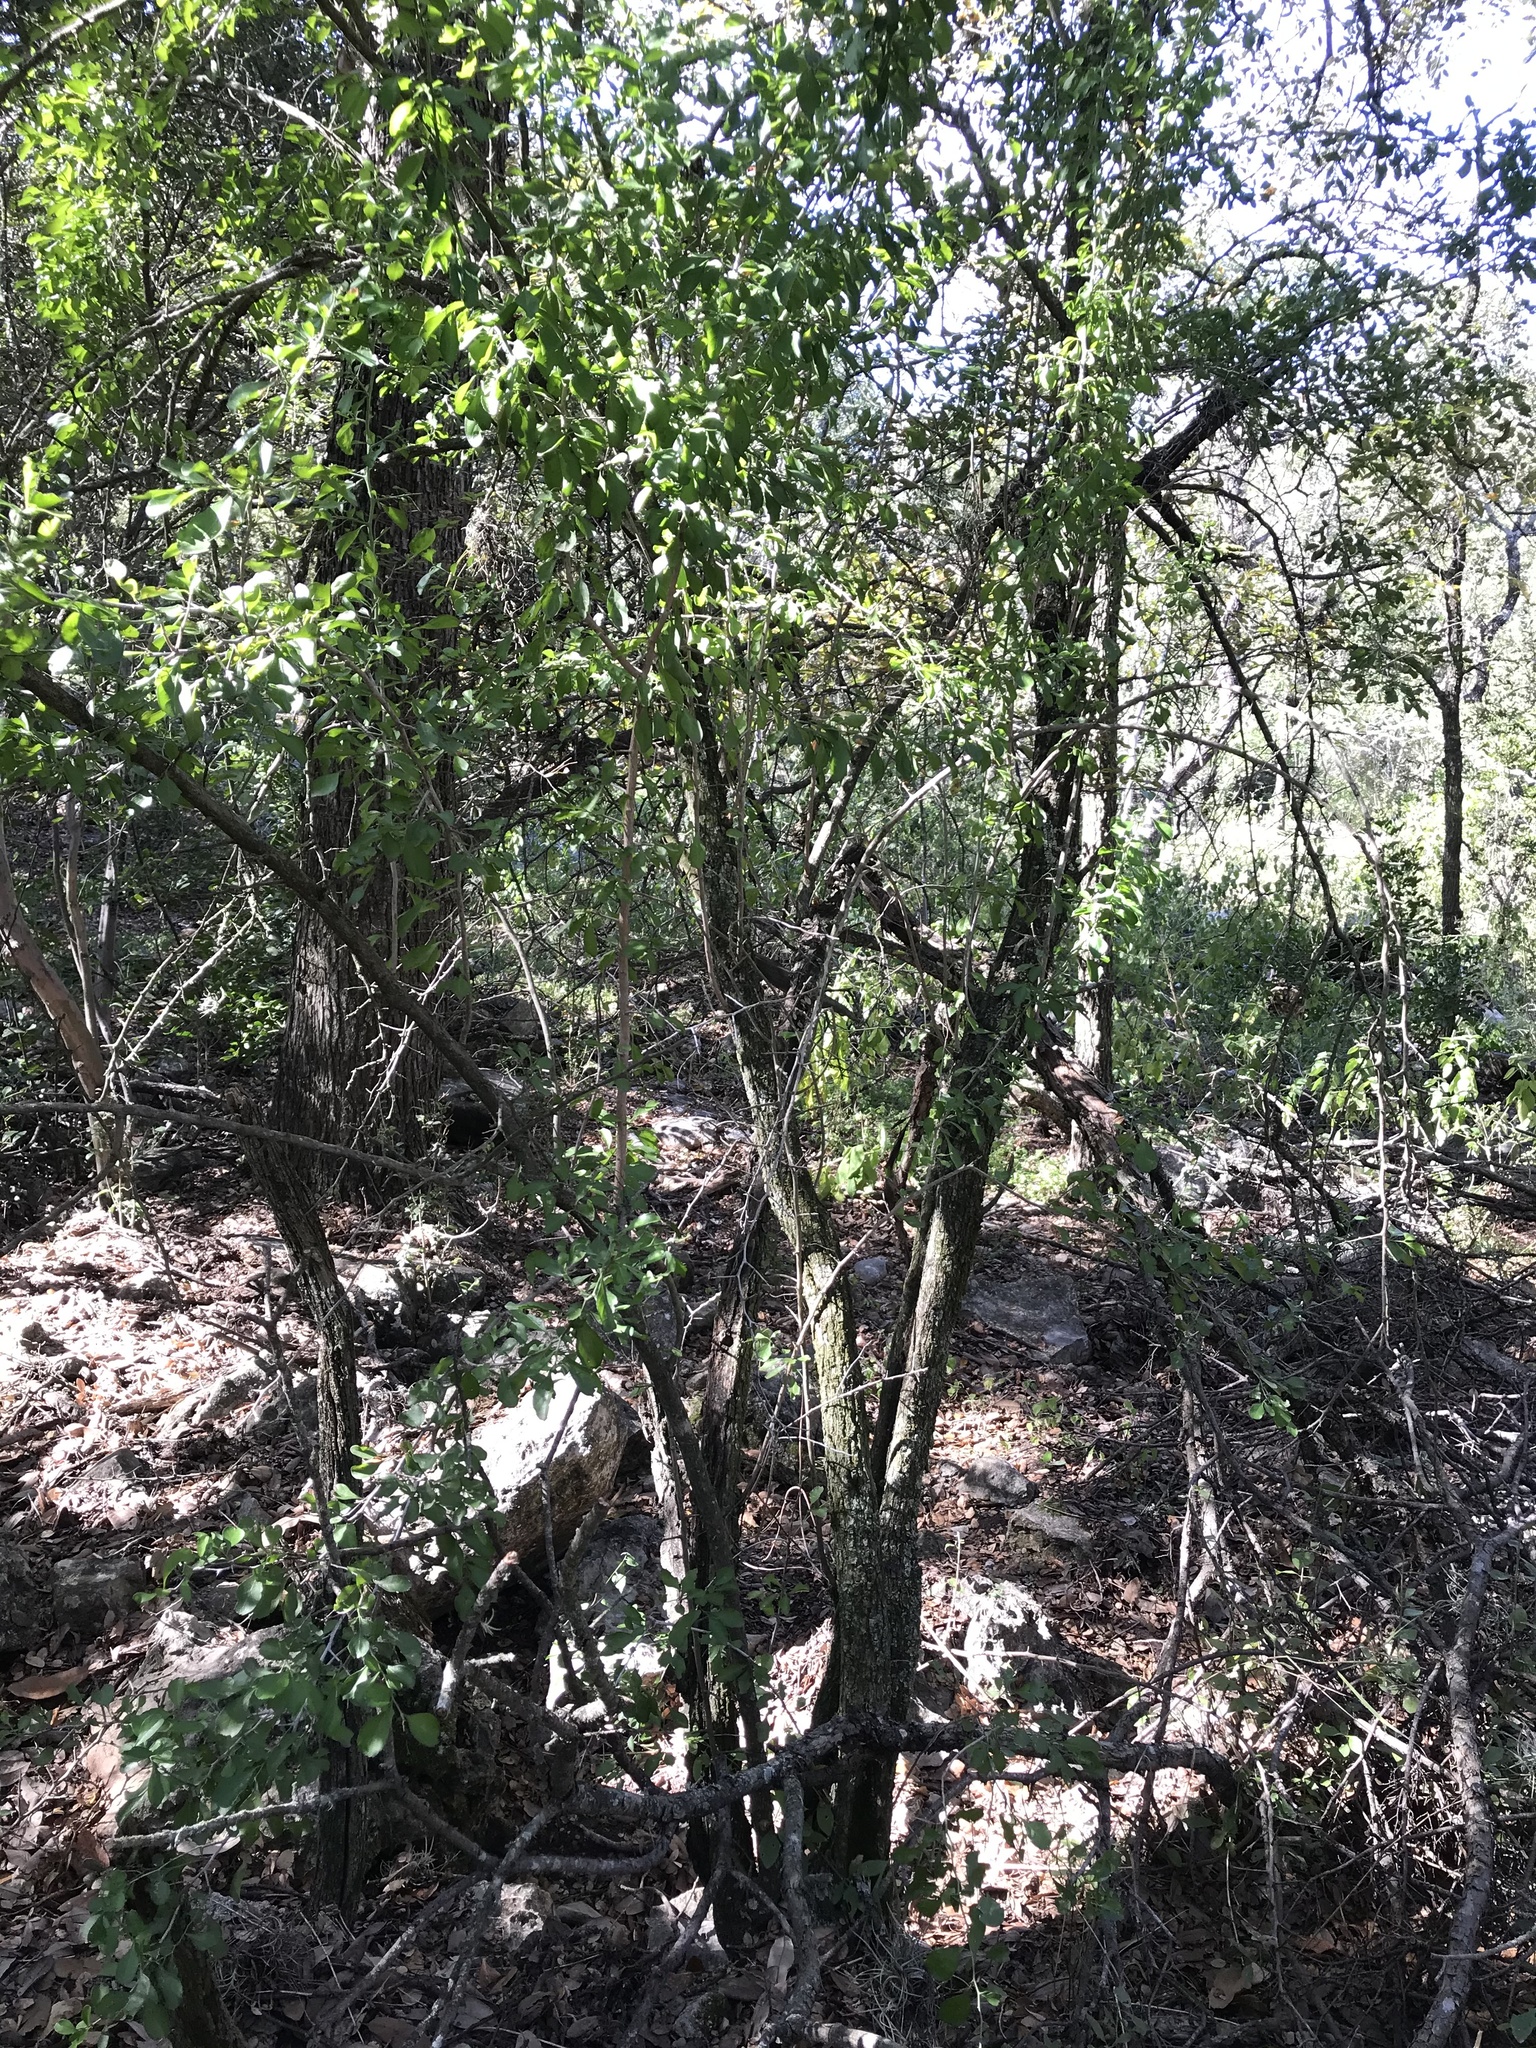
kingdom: Plantae
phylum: Tracheophyta
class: Magnoliopsida
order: Rosales
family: Rhamnaceae
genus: Condalia
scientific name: Condalia hookeri
